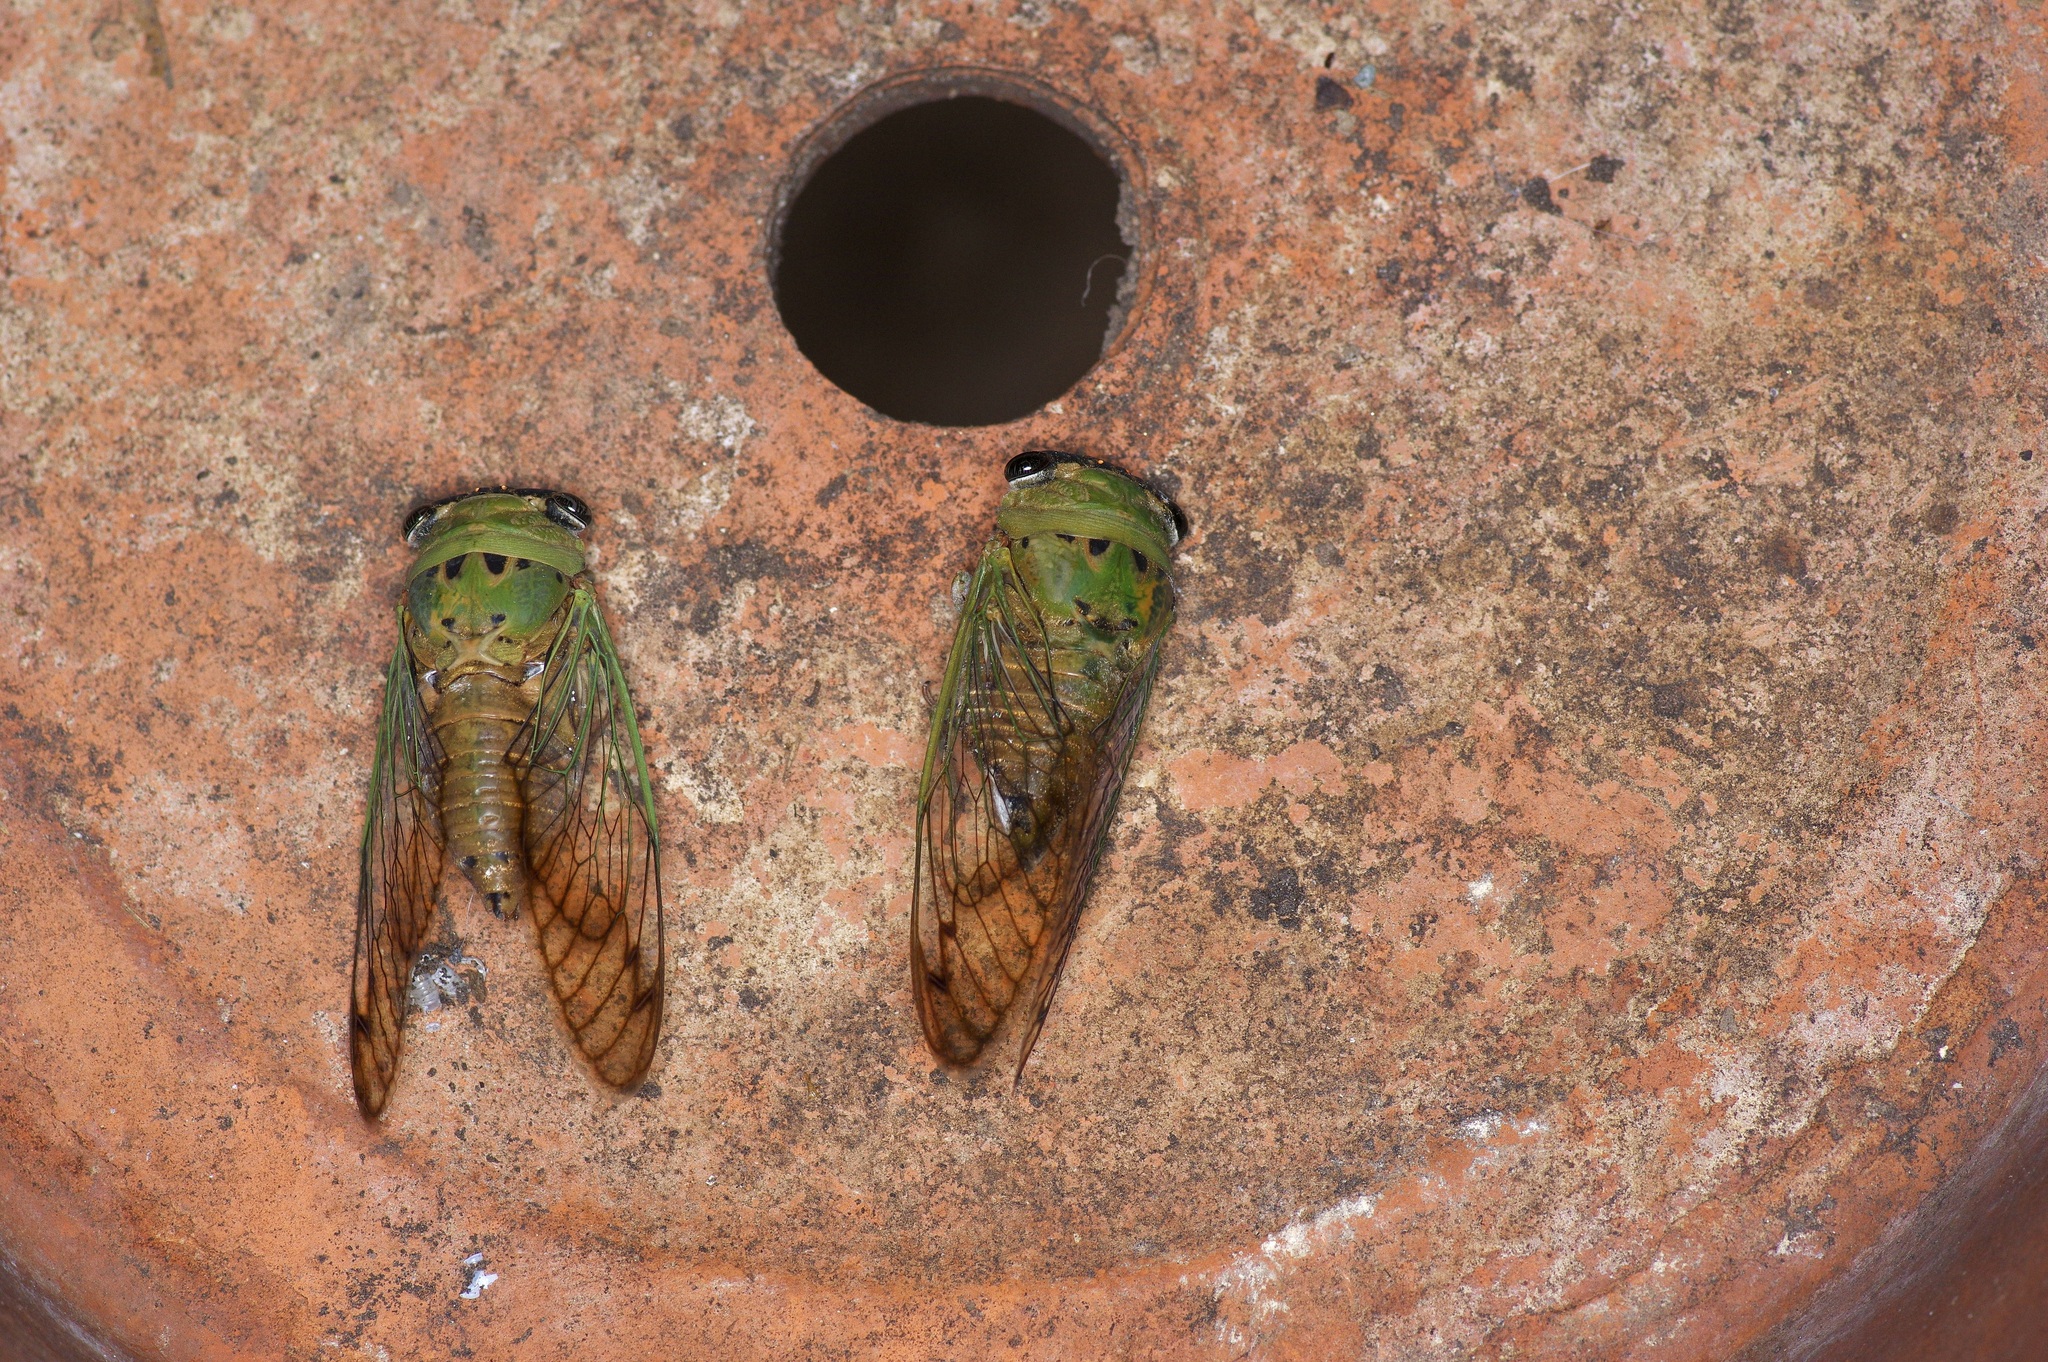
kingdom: Animalia
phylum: Arthropoda
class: Insecta
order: Hemiptera
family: Cicadidae
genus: Neotibicen
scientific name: Neotibicen superbus
